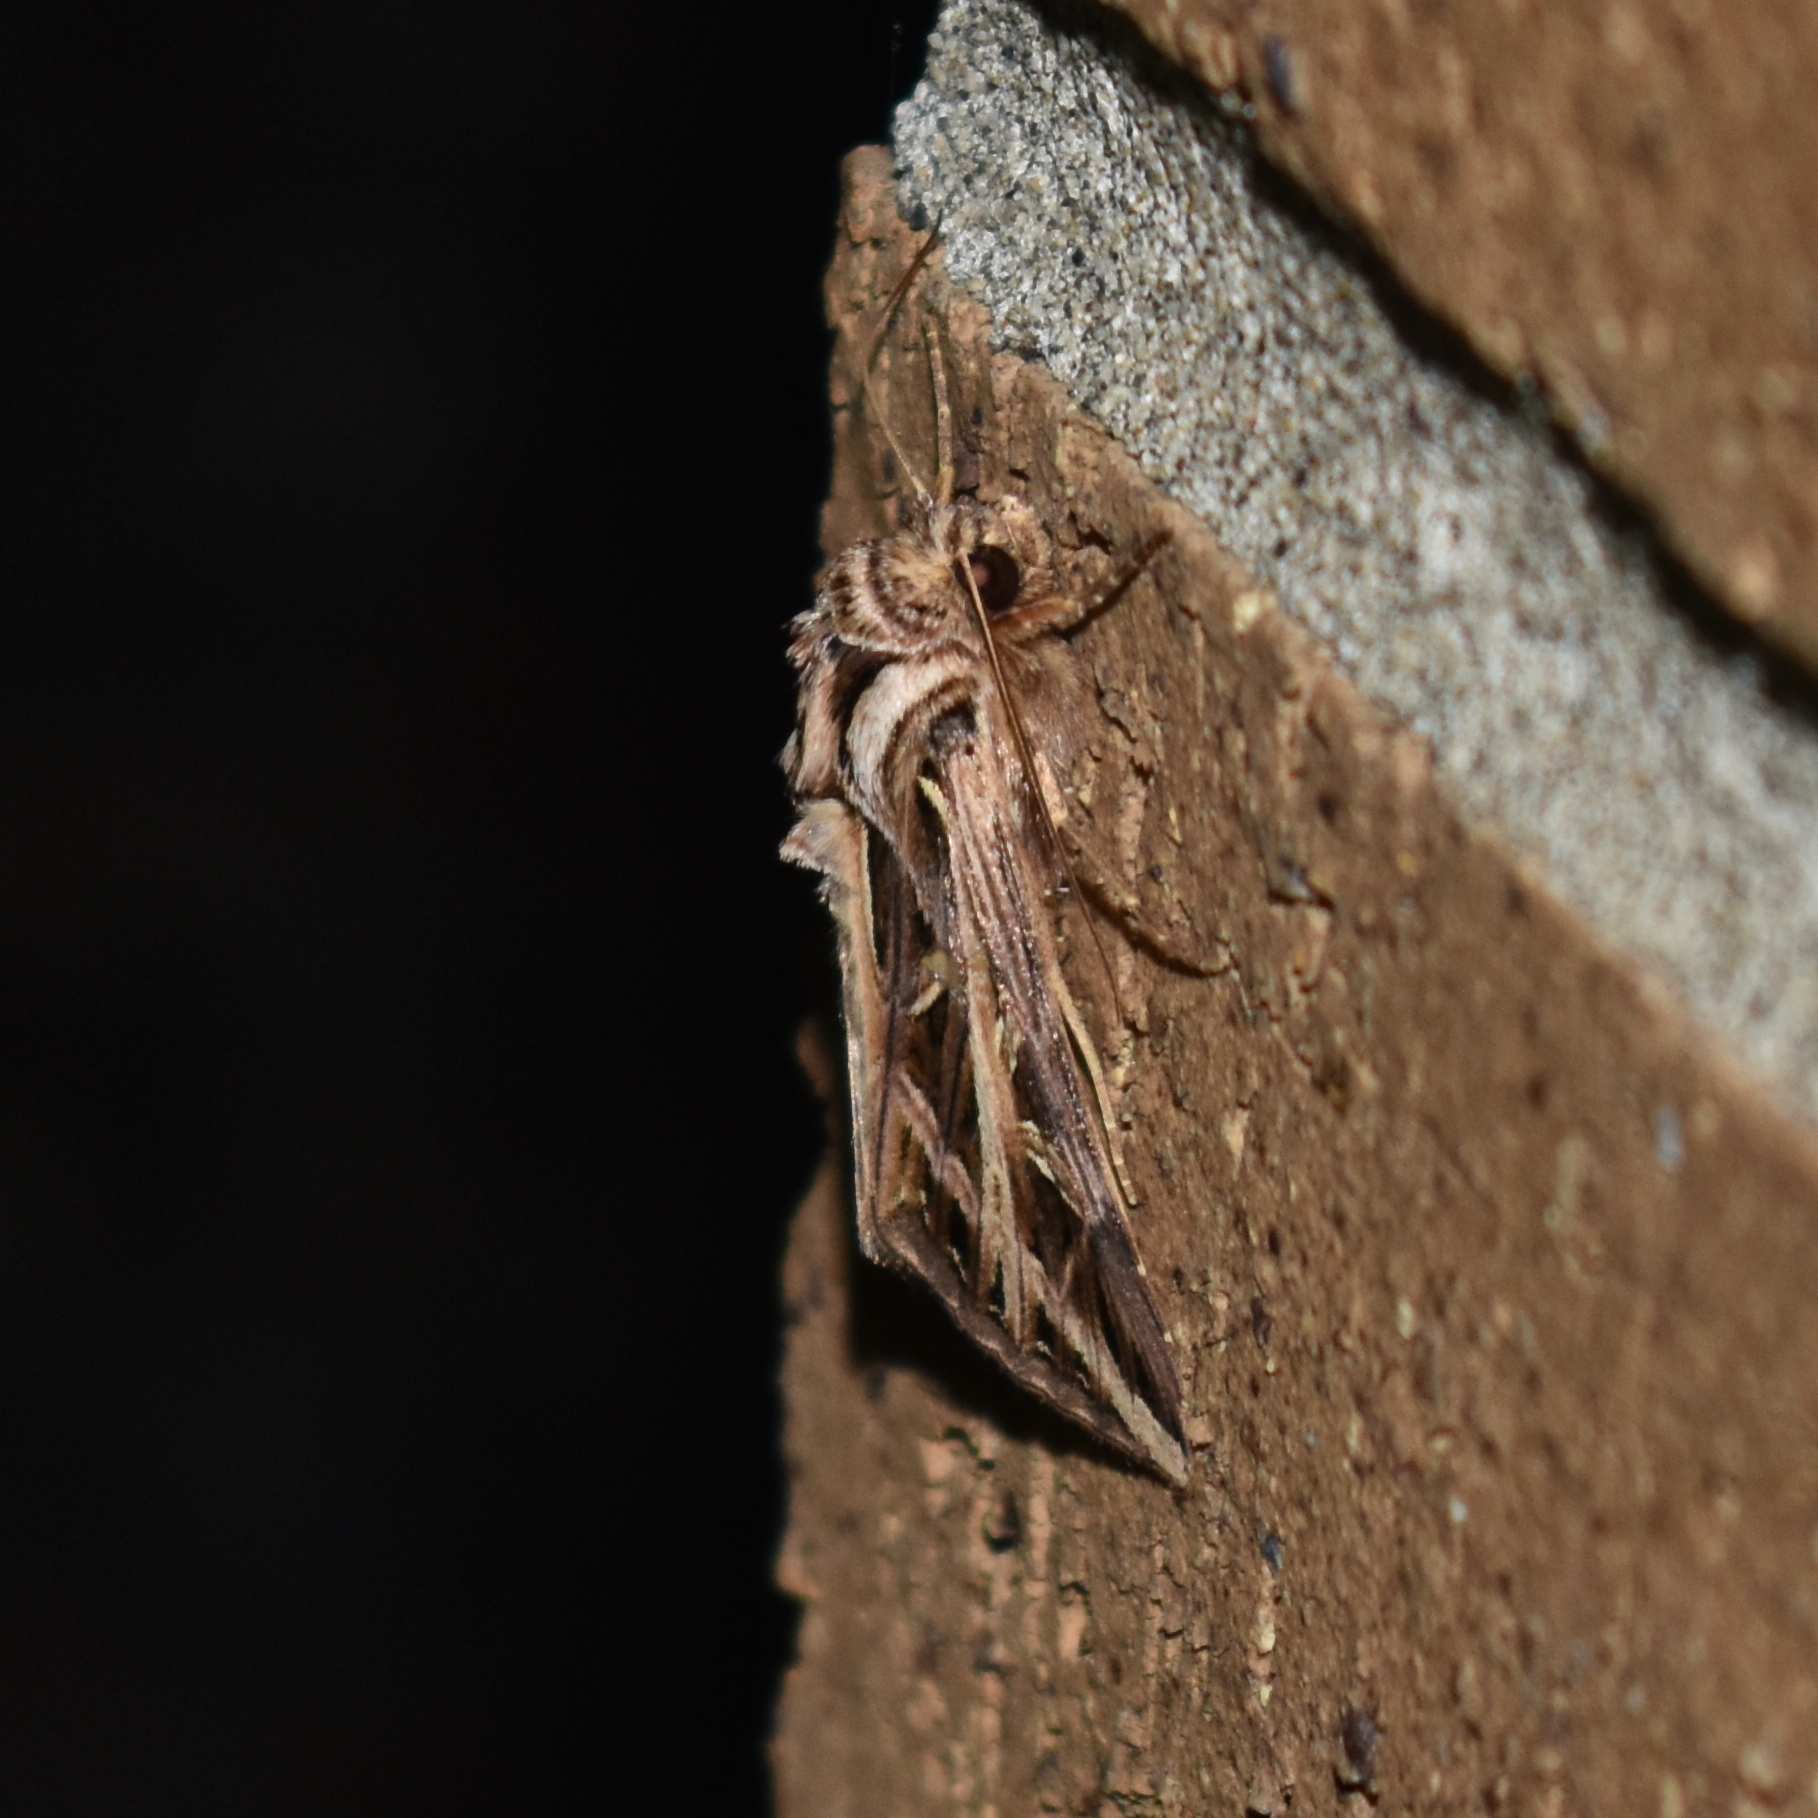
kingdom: Animalia
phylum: Arthropoda
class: Insecta
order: Lepidoptera
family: Noctuidae
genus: Dargida
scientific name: Dargida procinctus
